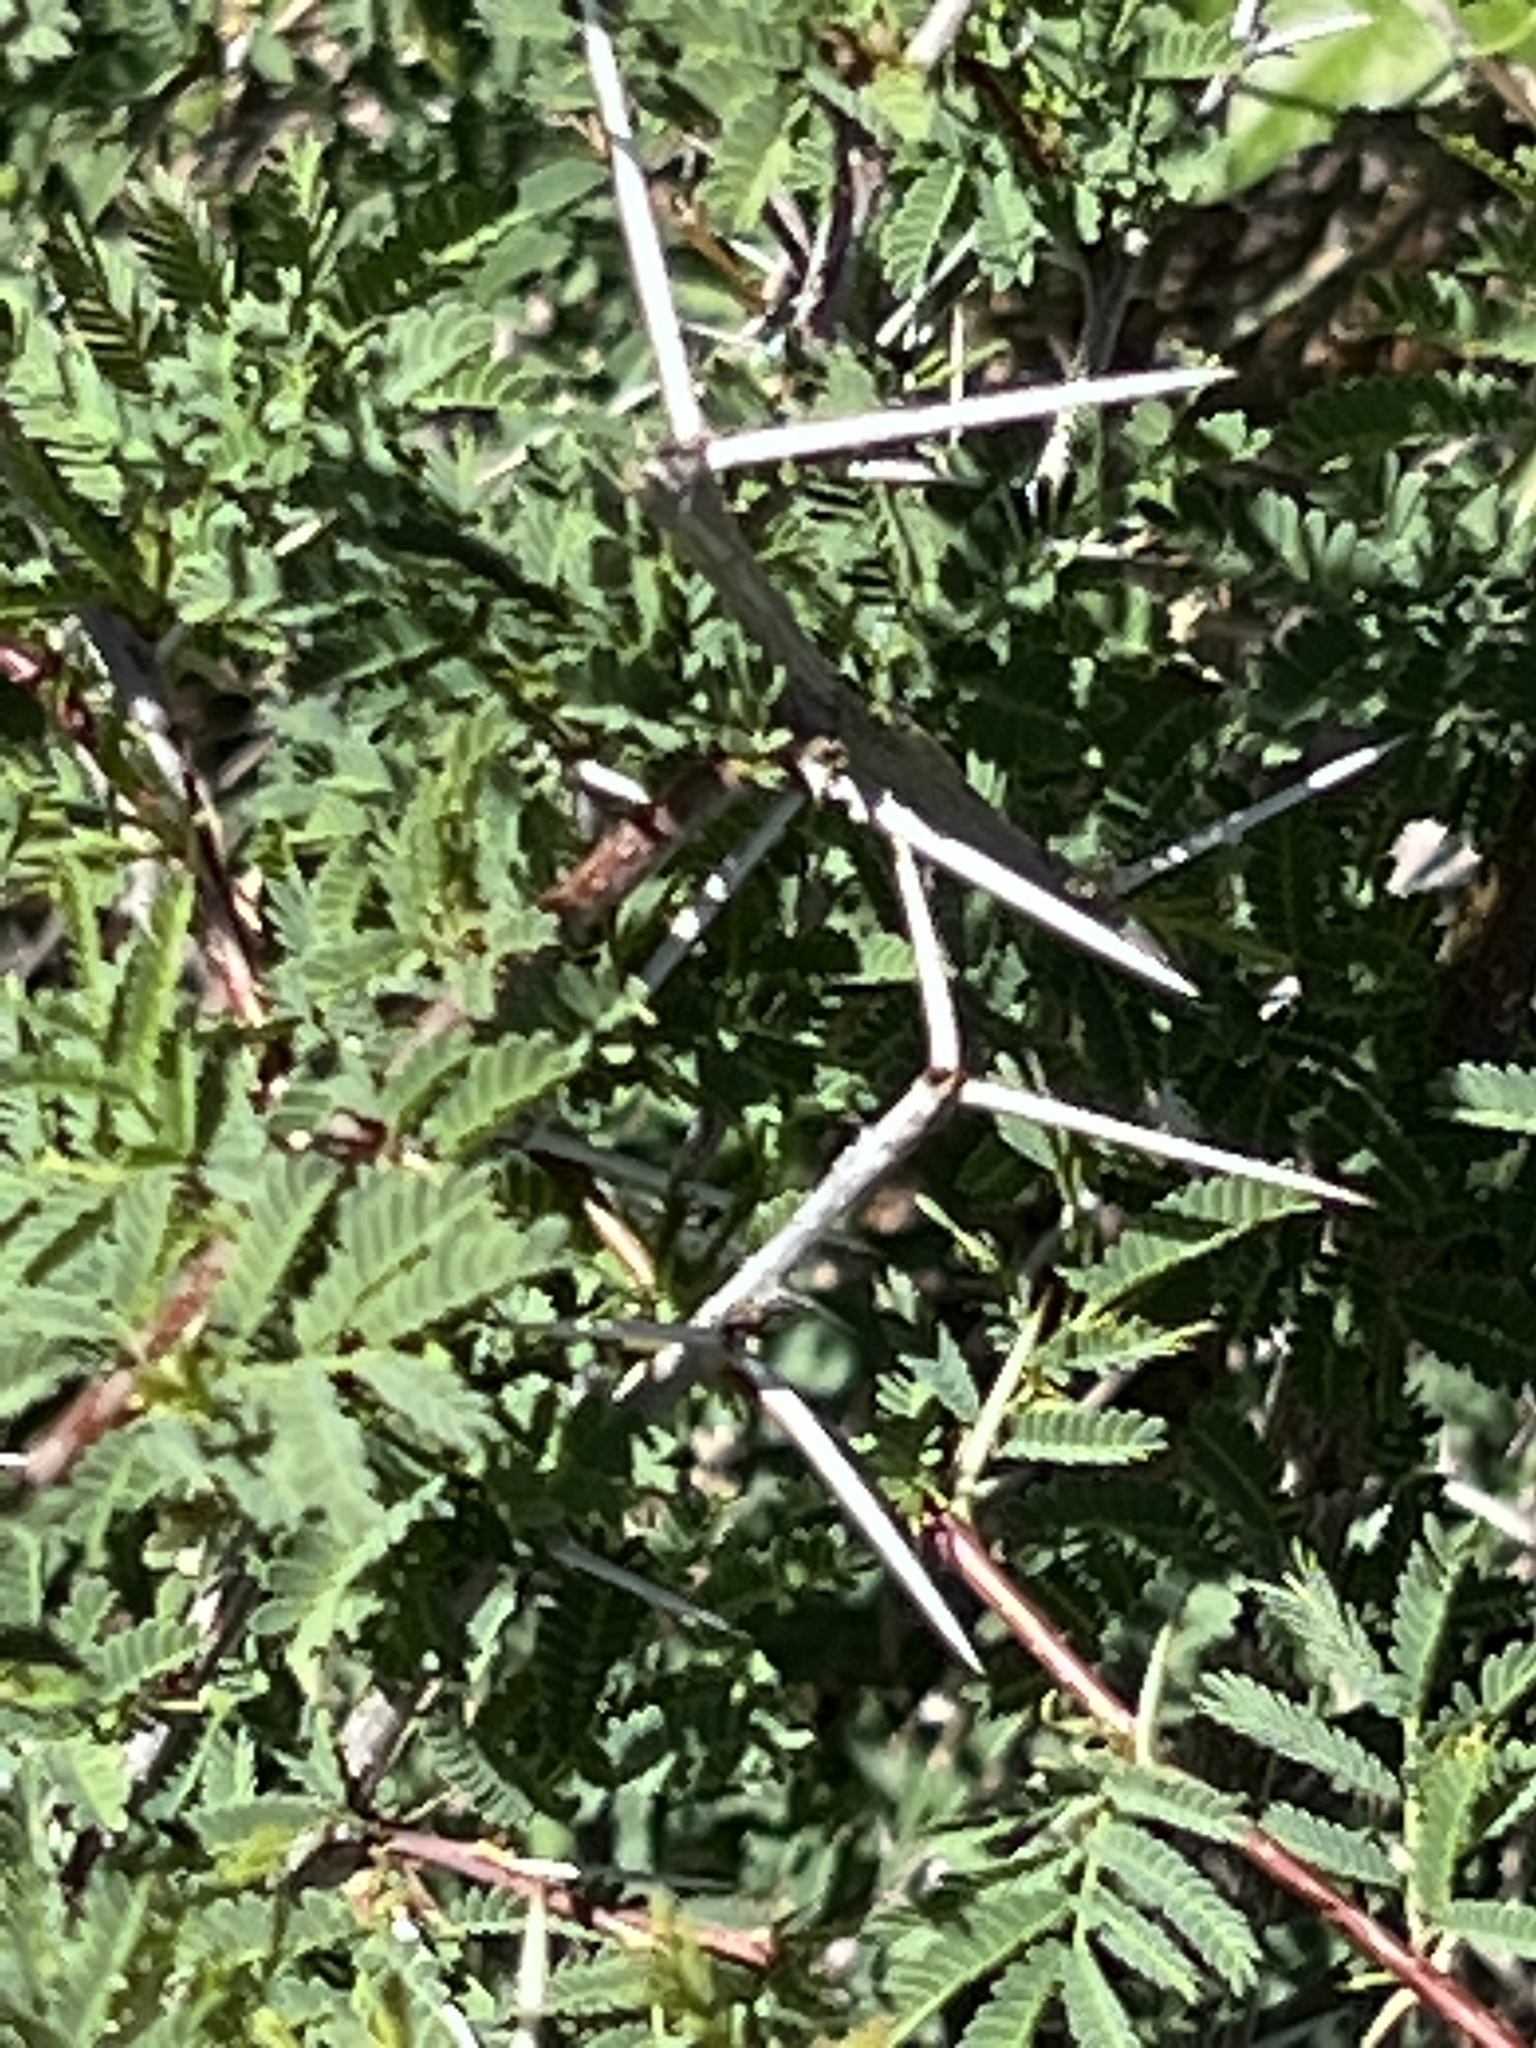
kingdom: Plantae
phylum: Tracheophyta
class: Magnoliopsida
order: Fabales
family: Fabaceae
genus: Vachellia
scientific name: Vachellia farnesiana
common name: Sweet acacia
